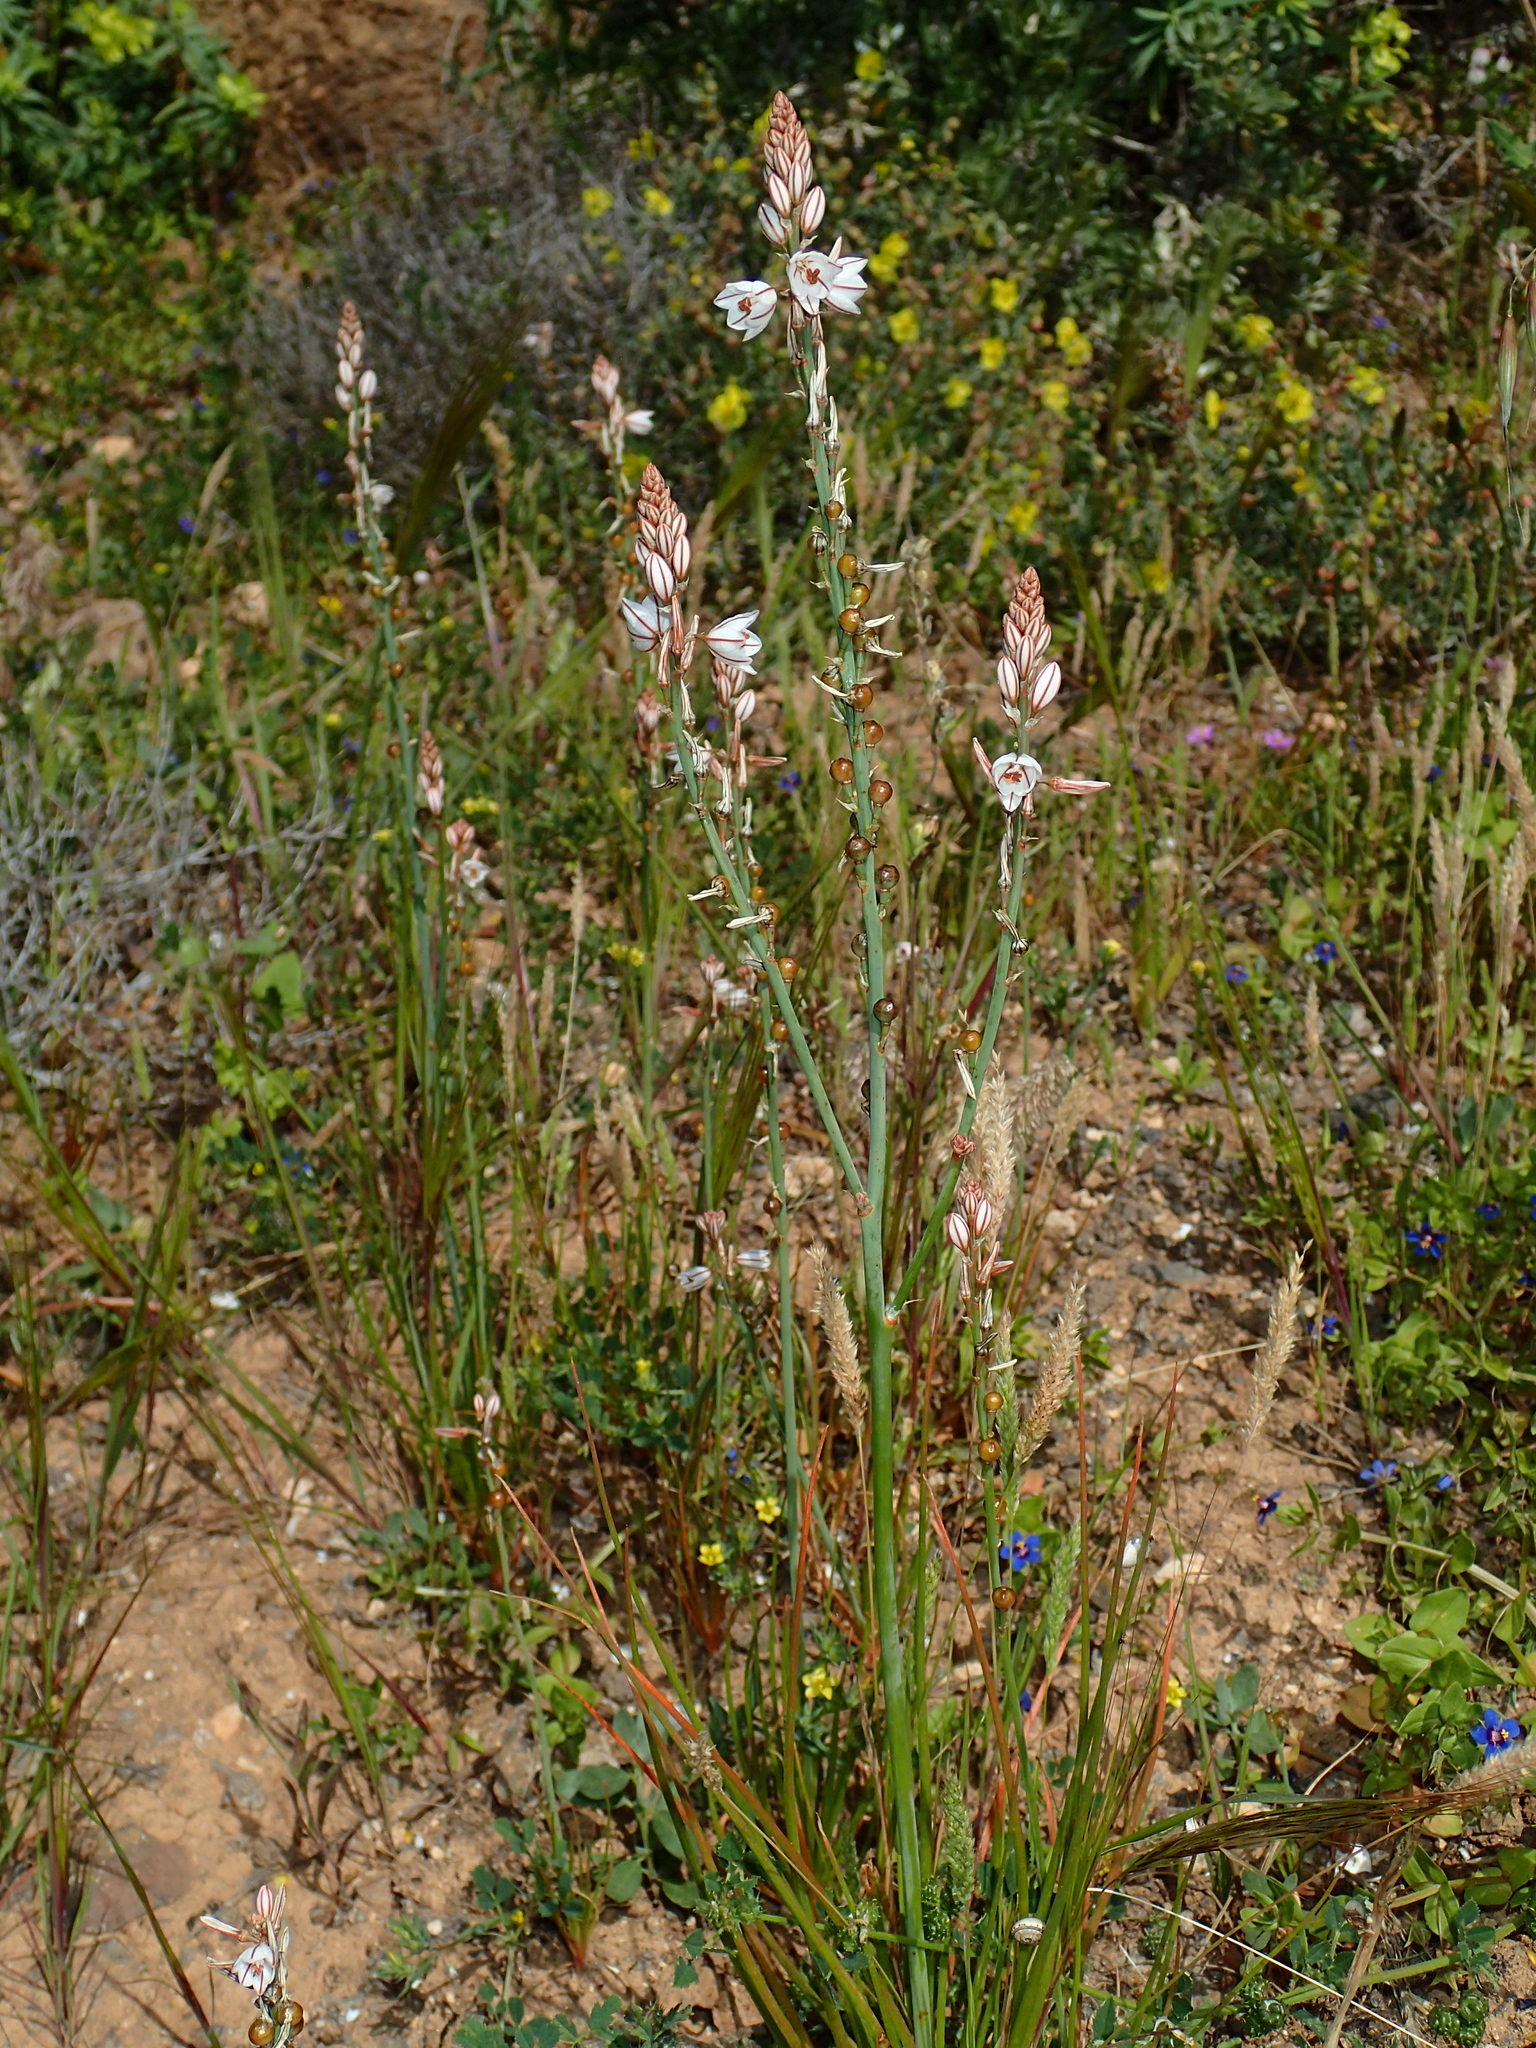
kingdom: Plantae
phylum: Tracheophyta
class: Liliopsida
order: Asparagales
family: Asphodelaceae
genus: Asphodelus
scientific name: Asphodelus fistulosus
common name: Onionweed
